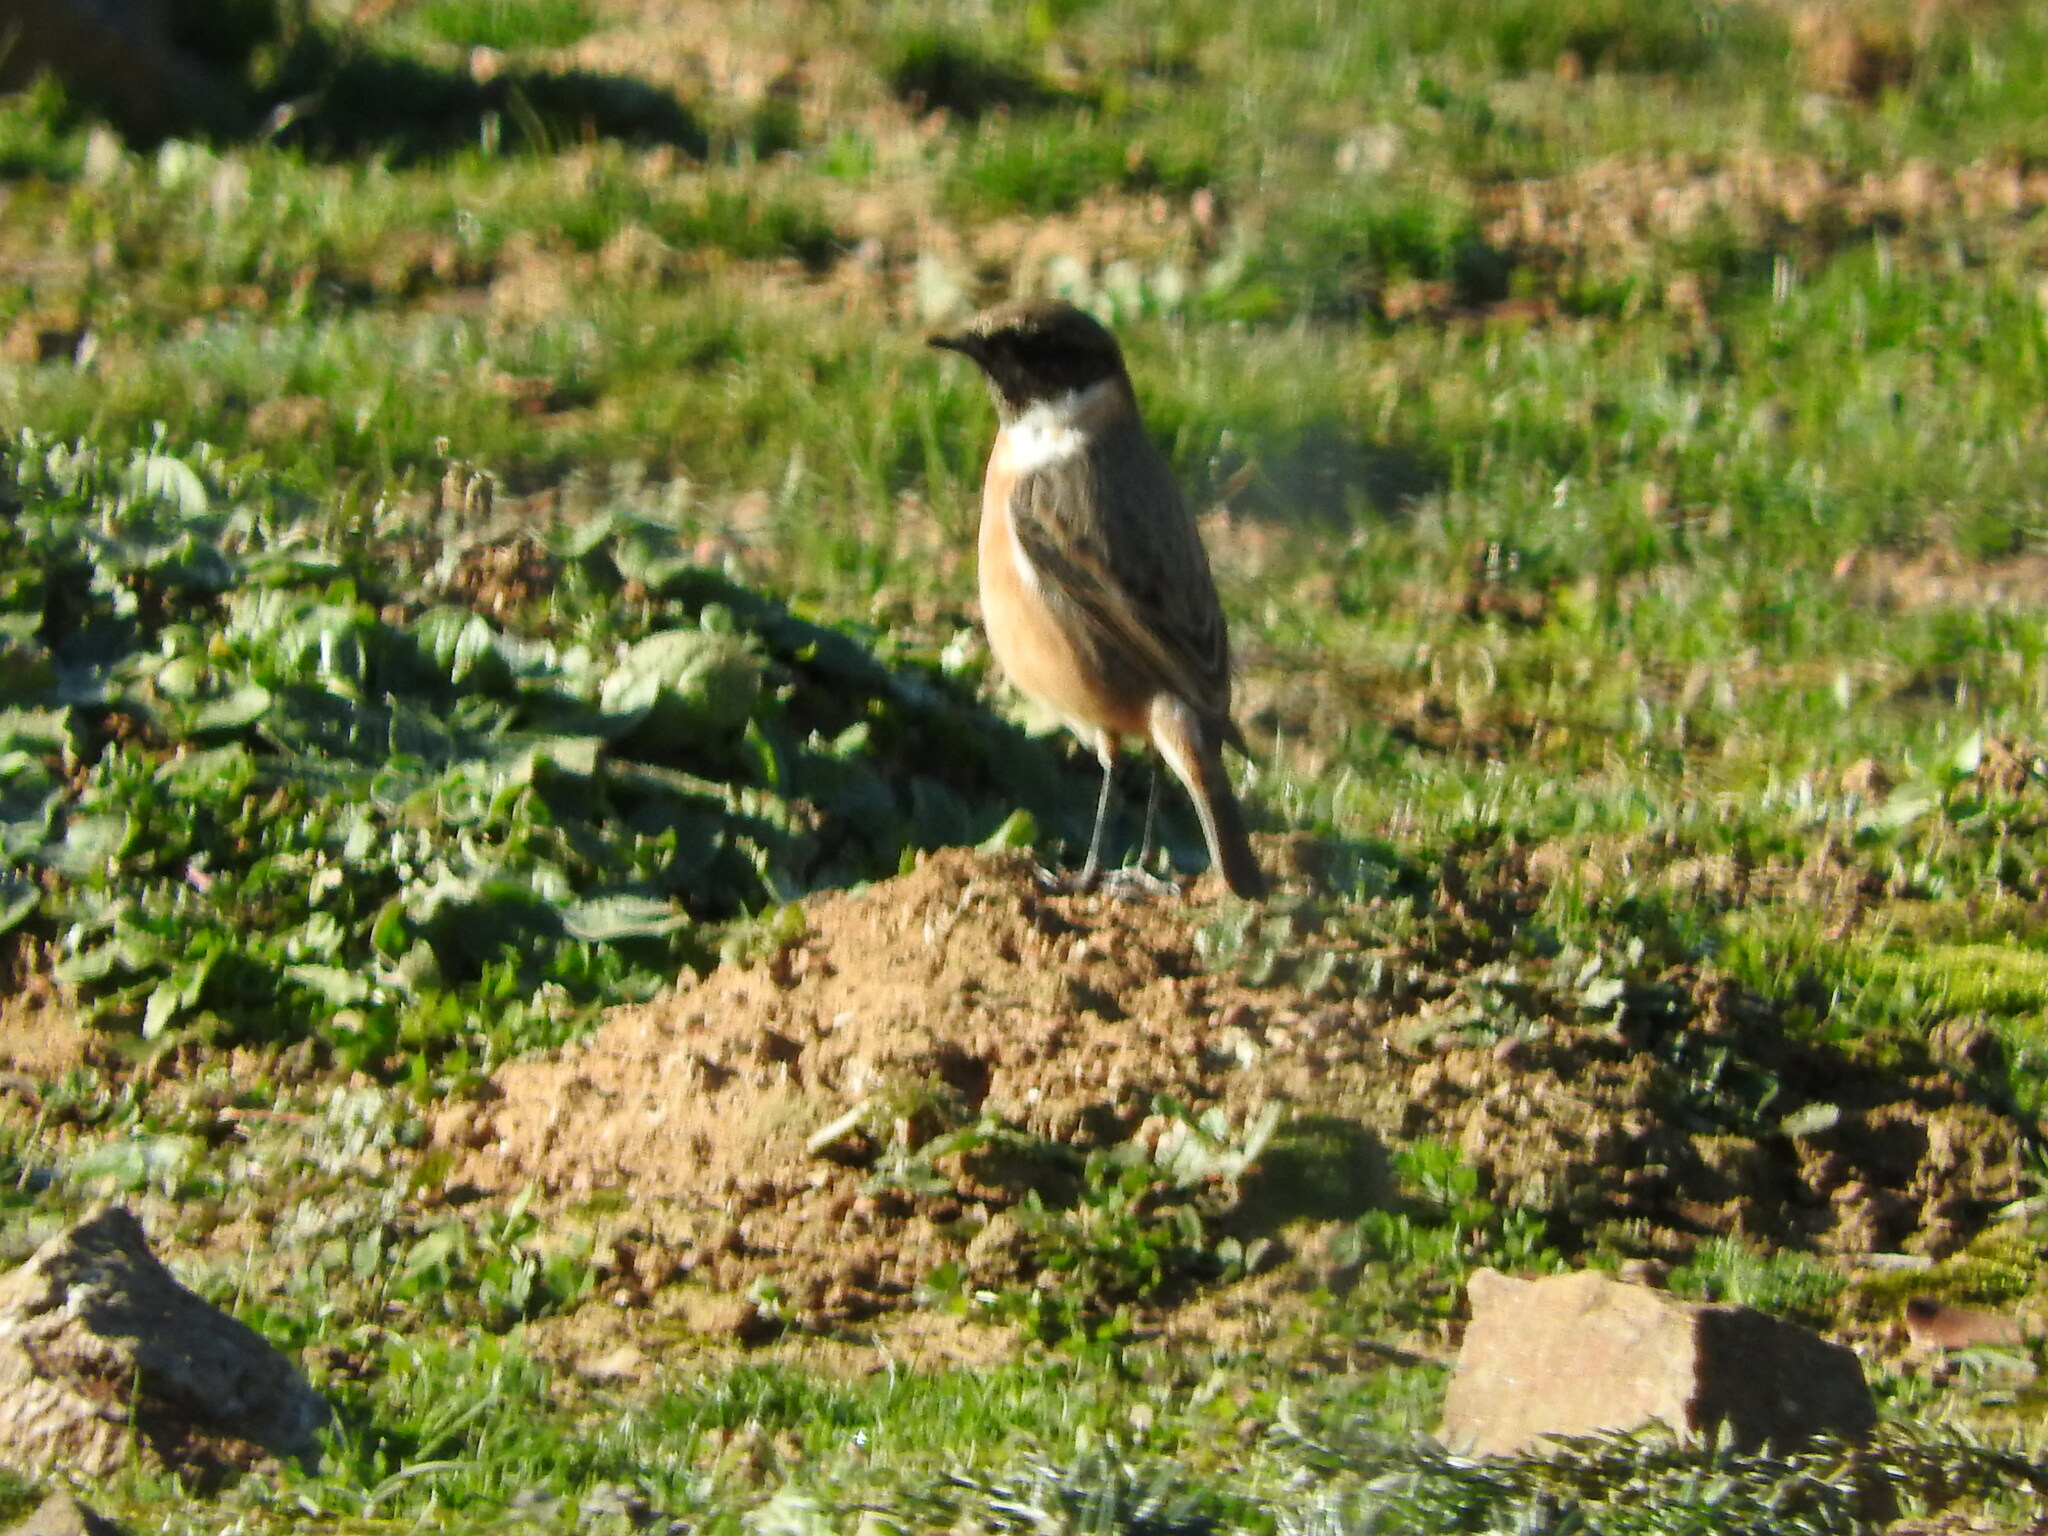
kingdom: Animalia
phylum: Chordata
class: Aves
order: Passeriformes
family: Muscicapidae
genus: Saxicola
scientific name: Saxicola rubicola
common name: European stonechat
